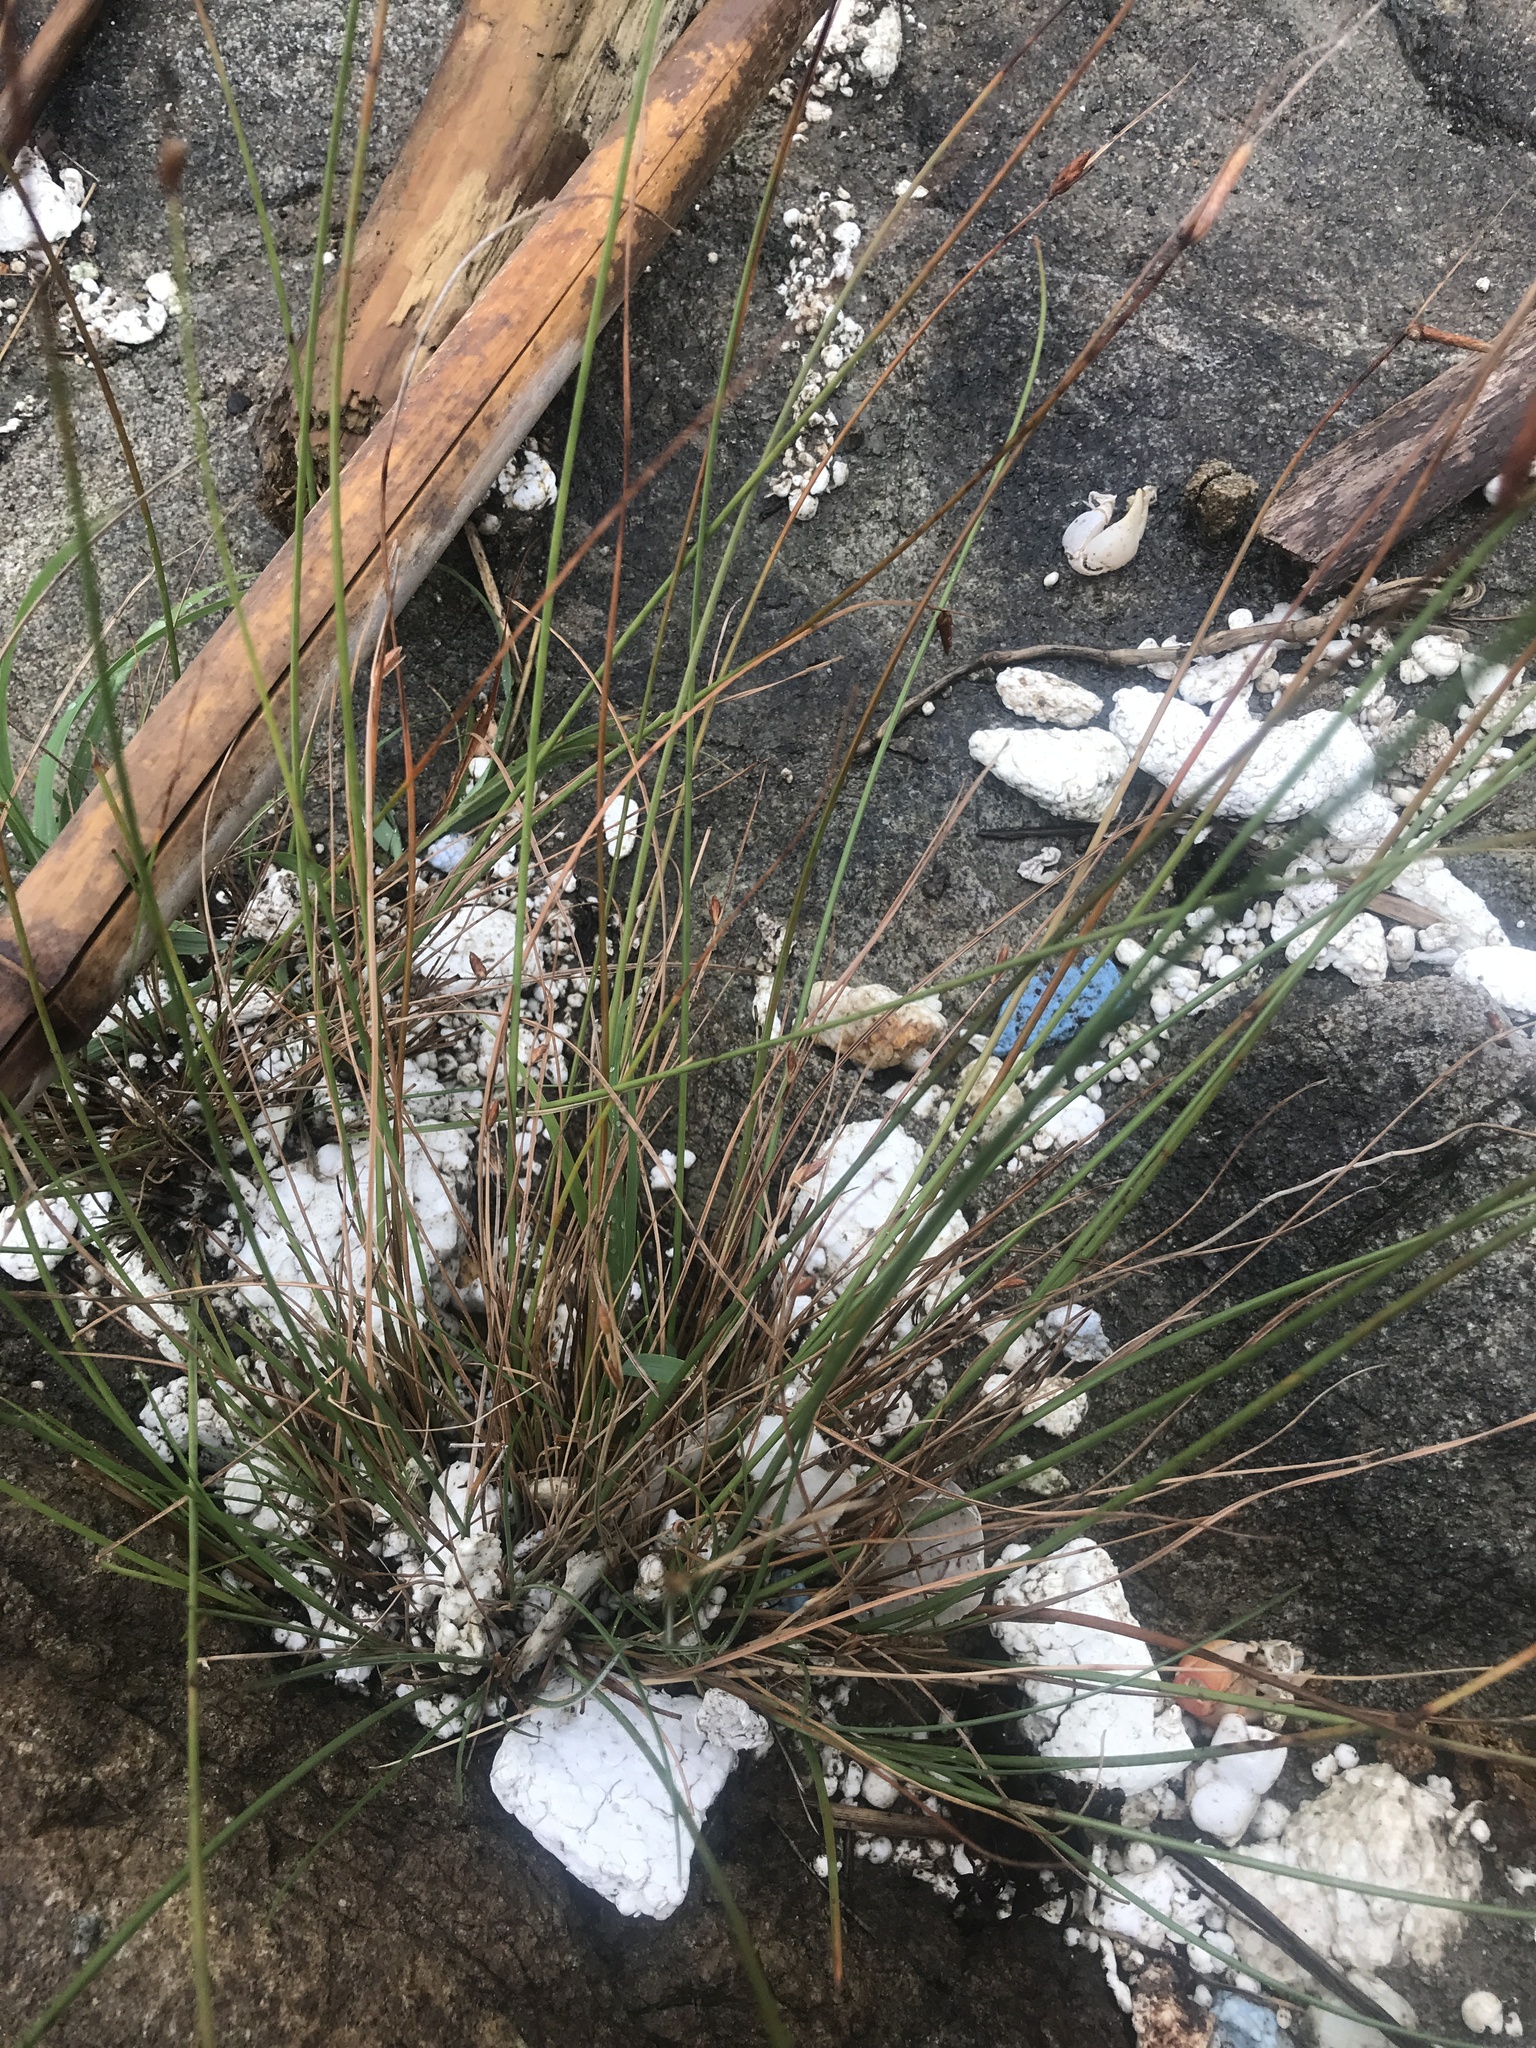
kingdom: Plantae
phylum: Tracheophyta
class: Liliopsida
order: Poales
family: Cyperaceae
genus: Fimbristylis
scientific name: Fimbristylis sieboldii
